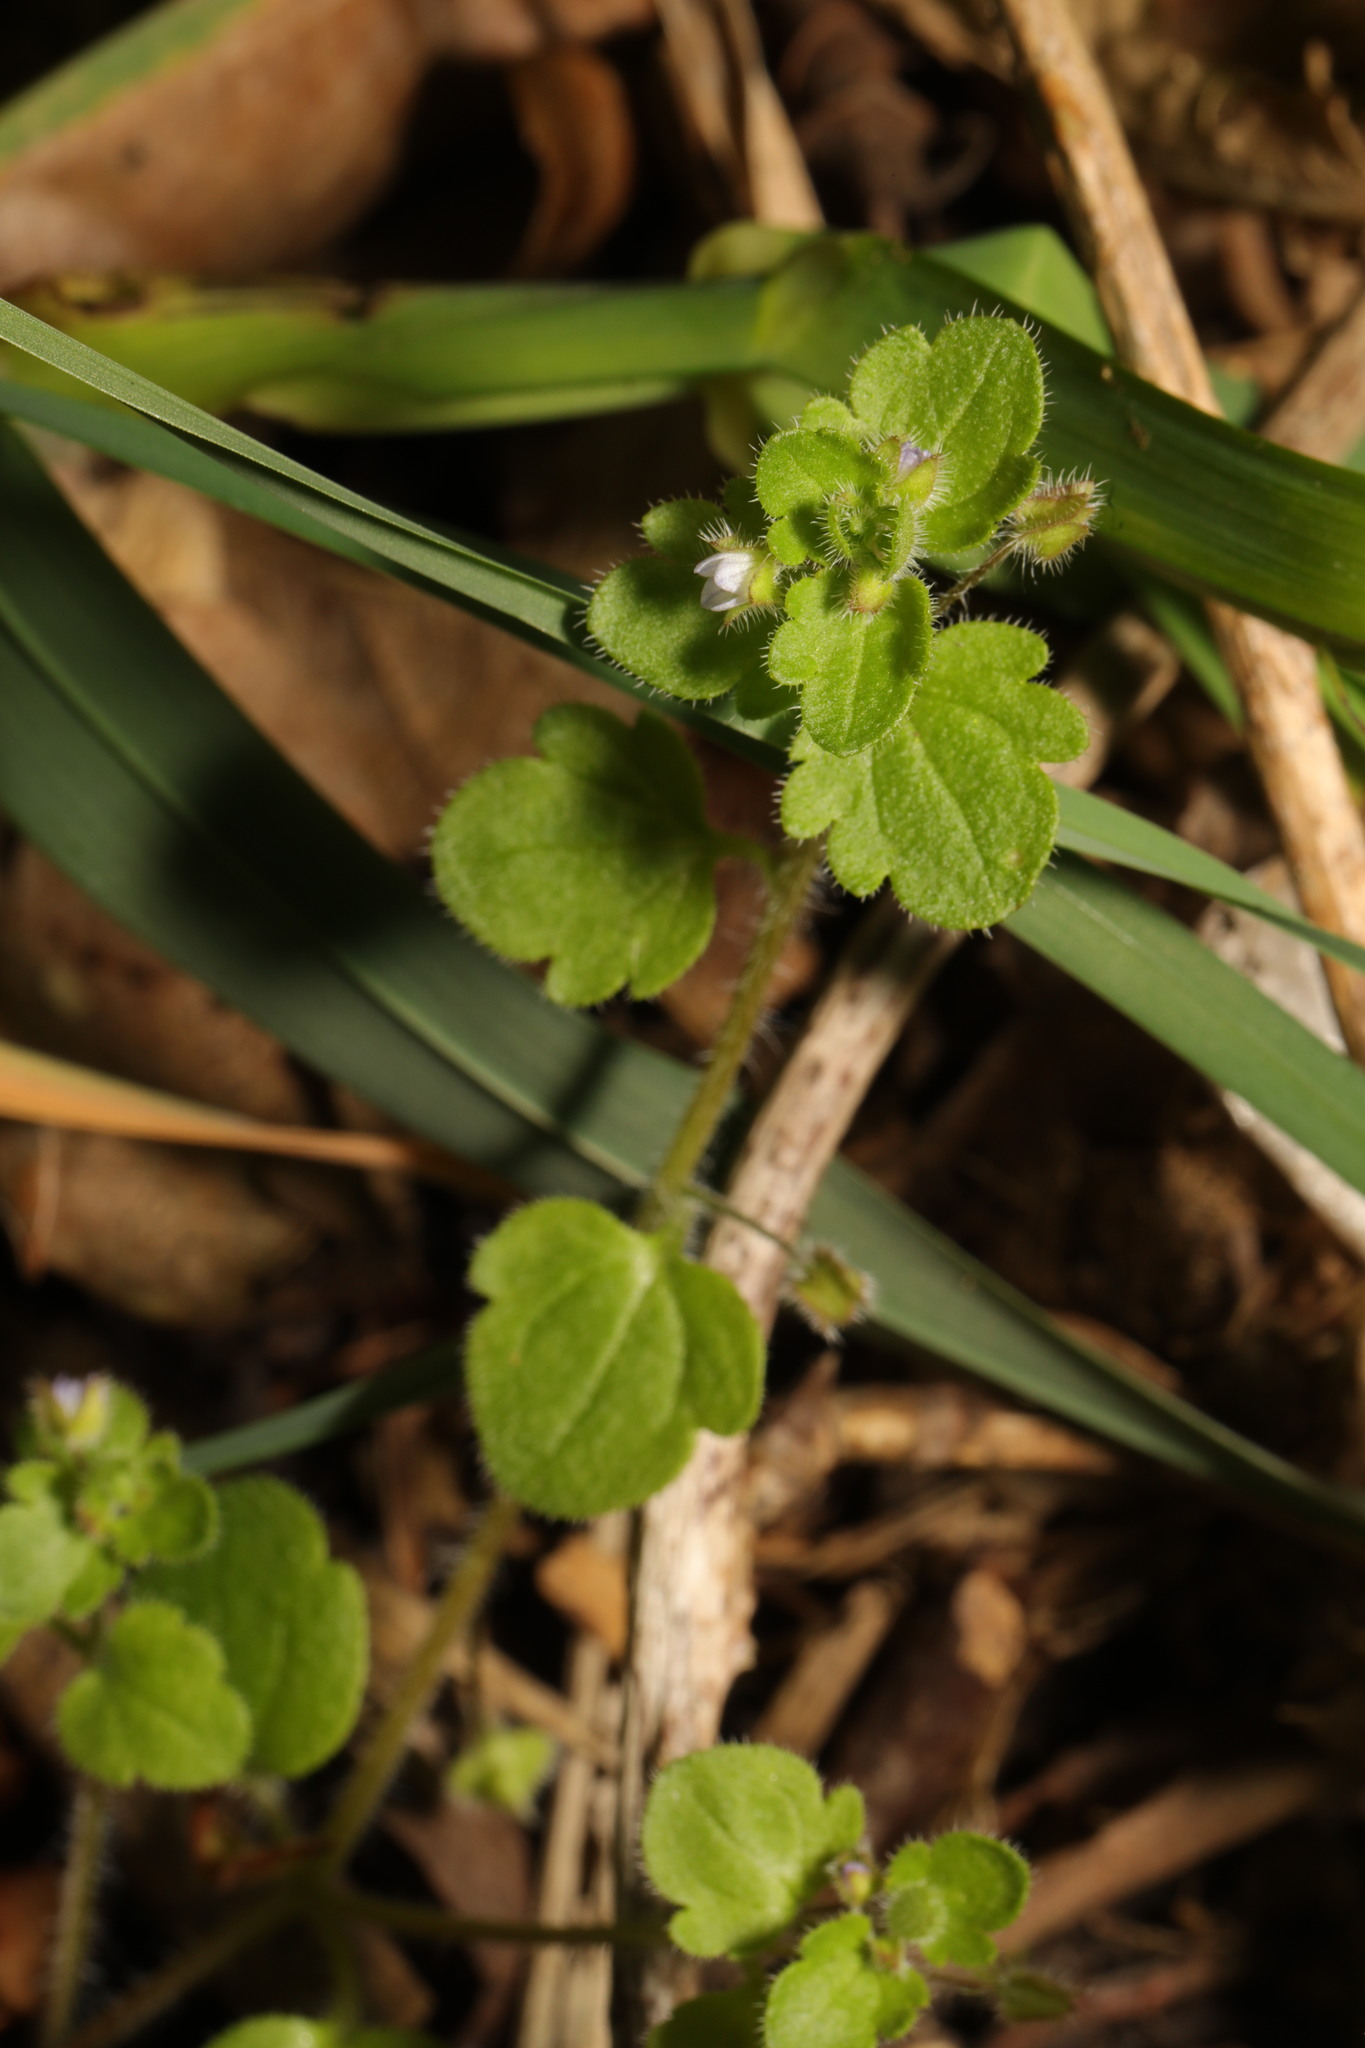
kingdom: Plantae
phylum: Tracheophyta
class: Magnoliopsida
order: Lamiales
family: Plantaginaceae
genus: Veronica
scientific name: Veronica sublobata
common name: False ivy-leaved speedwell
